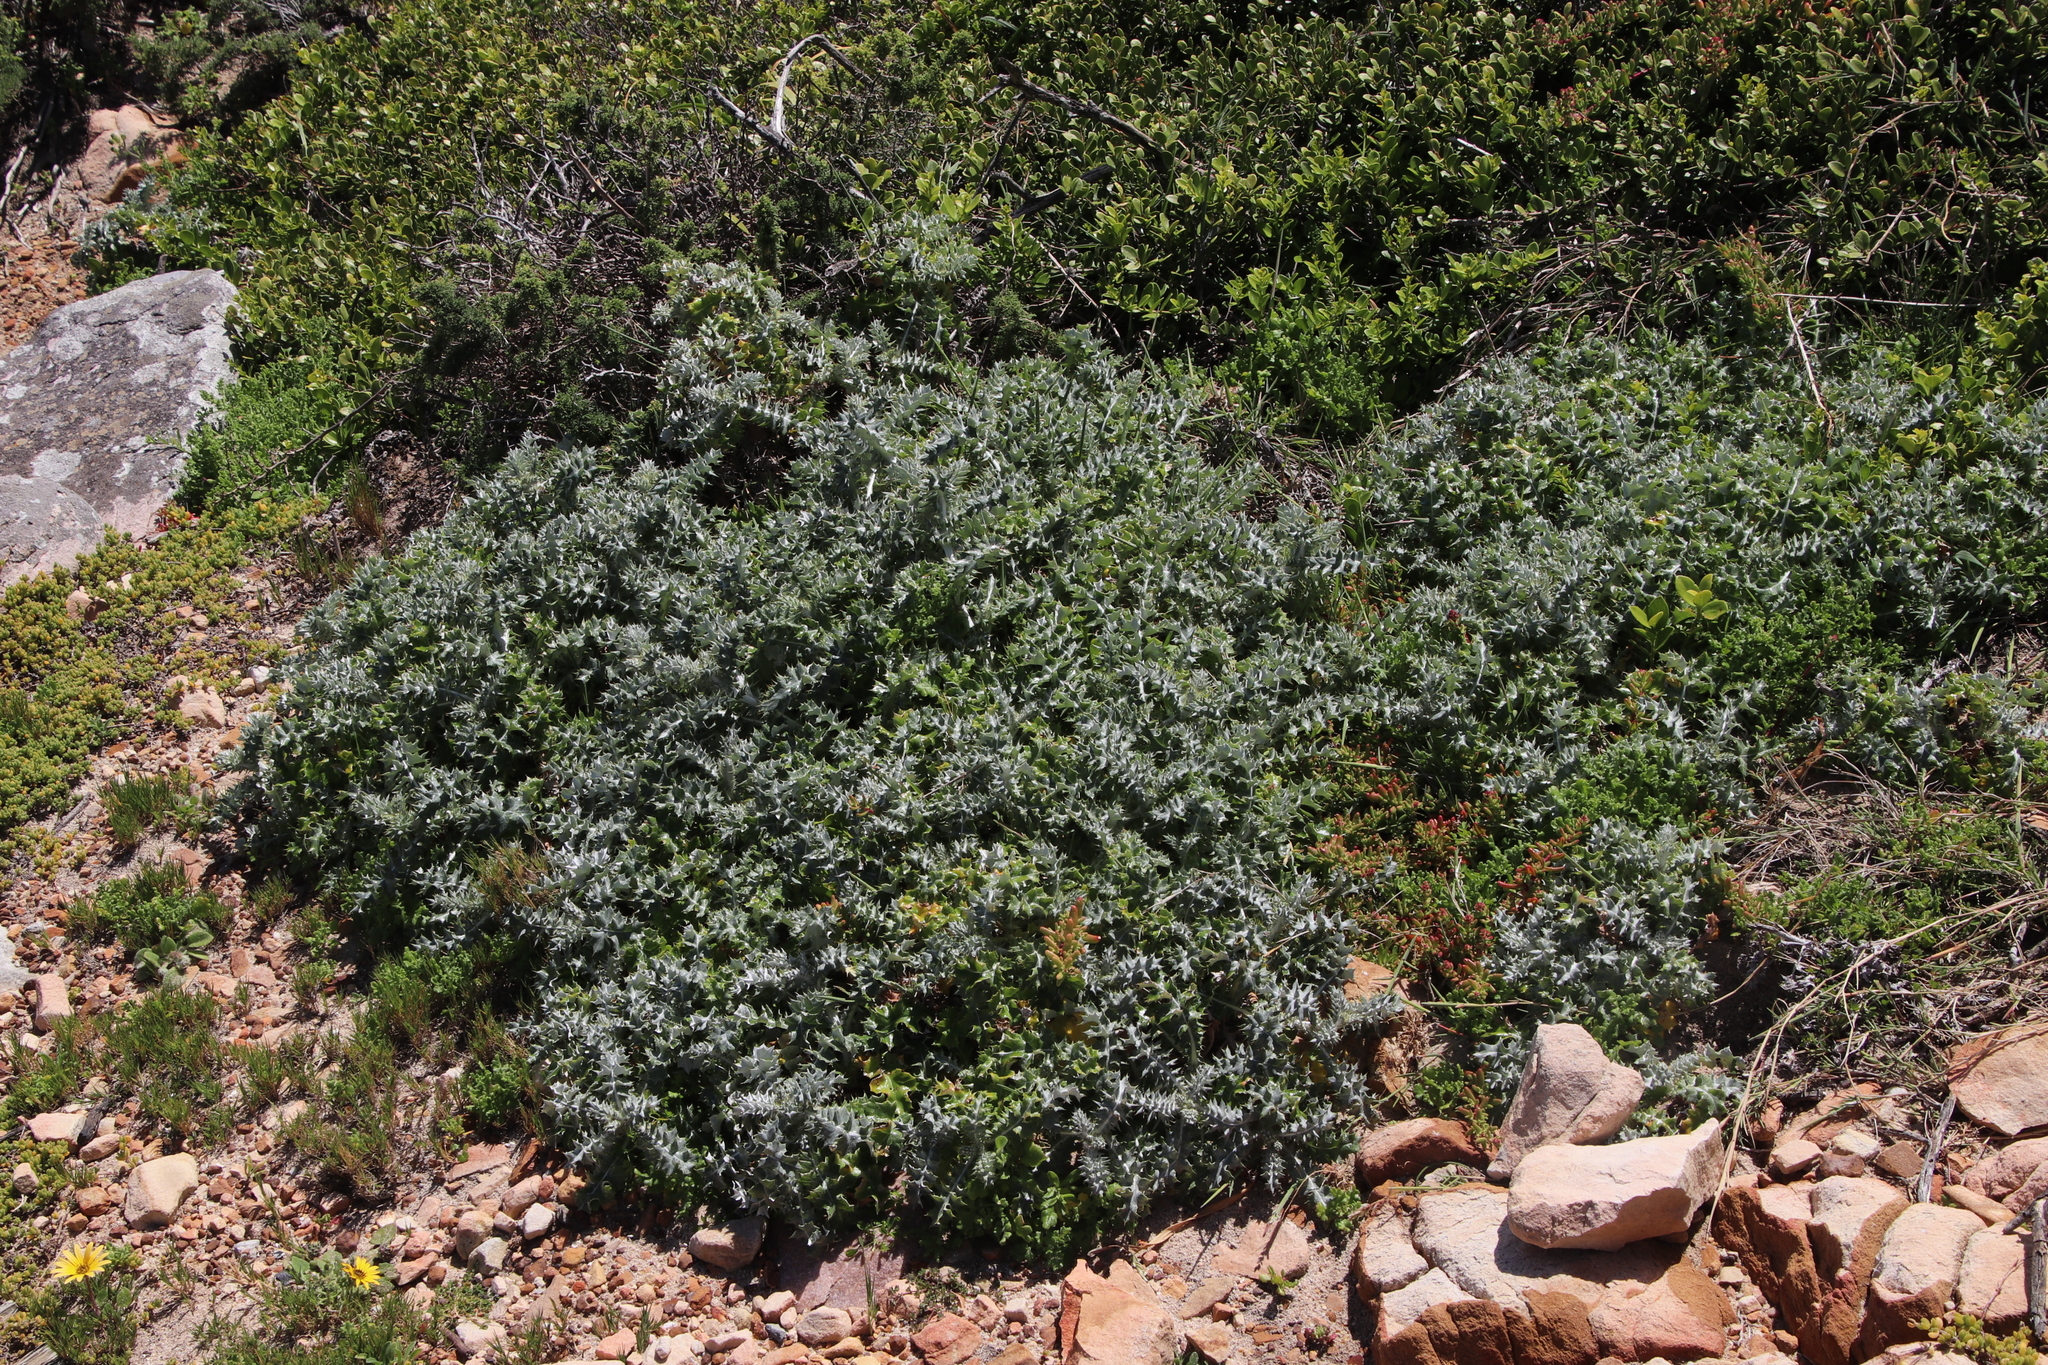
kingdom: Plantae
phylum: Tracheophyta
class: Magnoliopsida
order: Asterales
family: Asteraceae
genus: Berkheya
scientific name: Berkheya rigida
